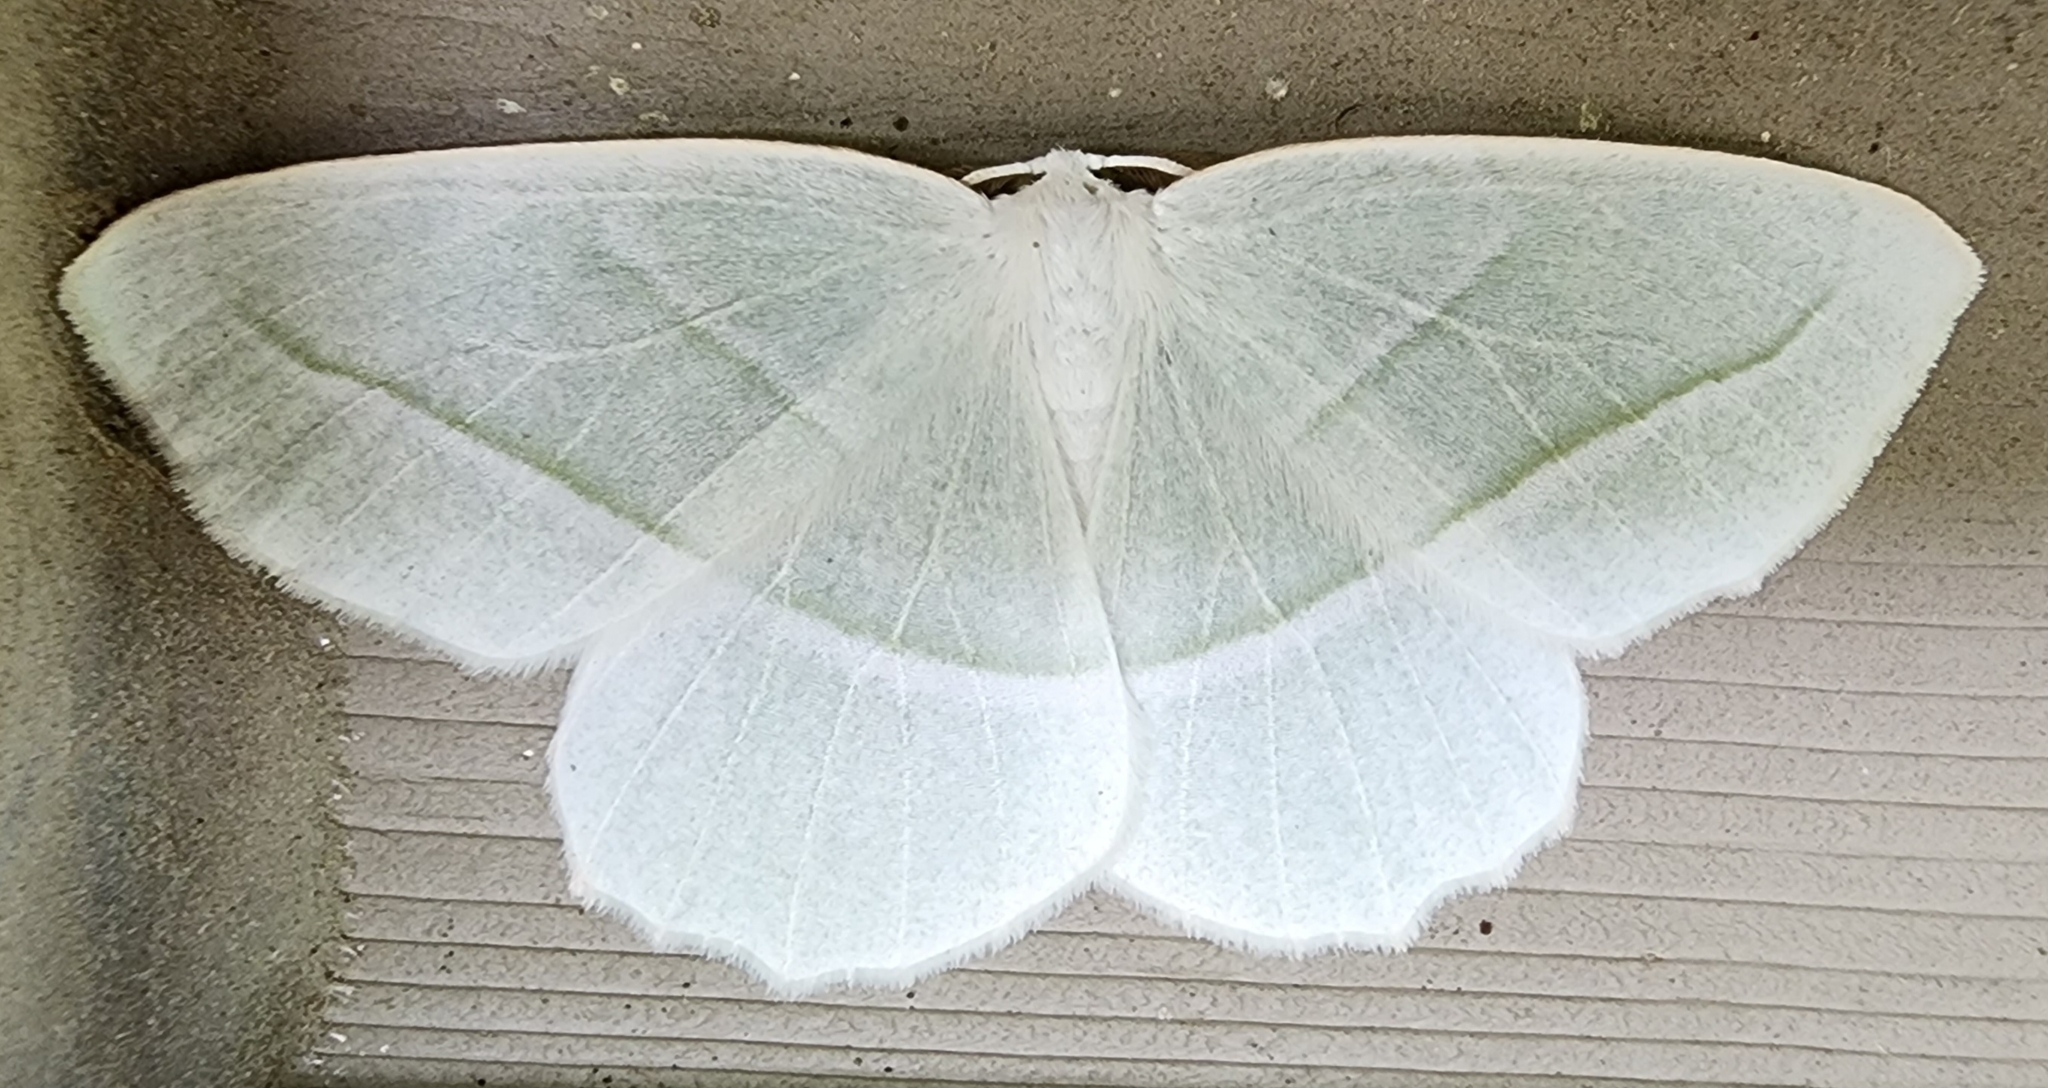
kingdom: Animalia
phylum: Arthropoda
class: Insecta
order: Lepidoptera
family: Geometridae
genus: Campaea
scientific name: Campaea perlata
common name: Fringed looper
